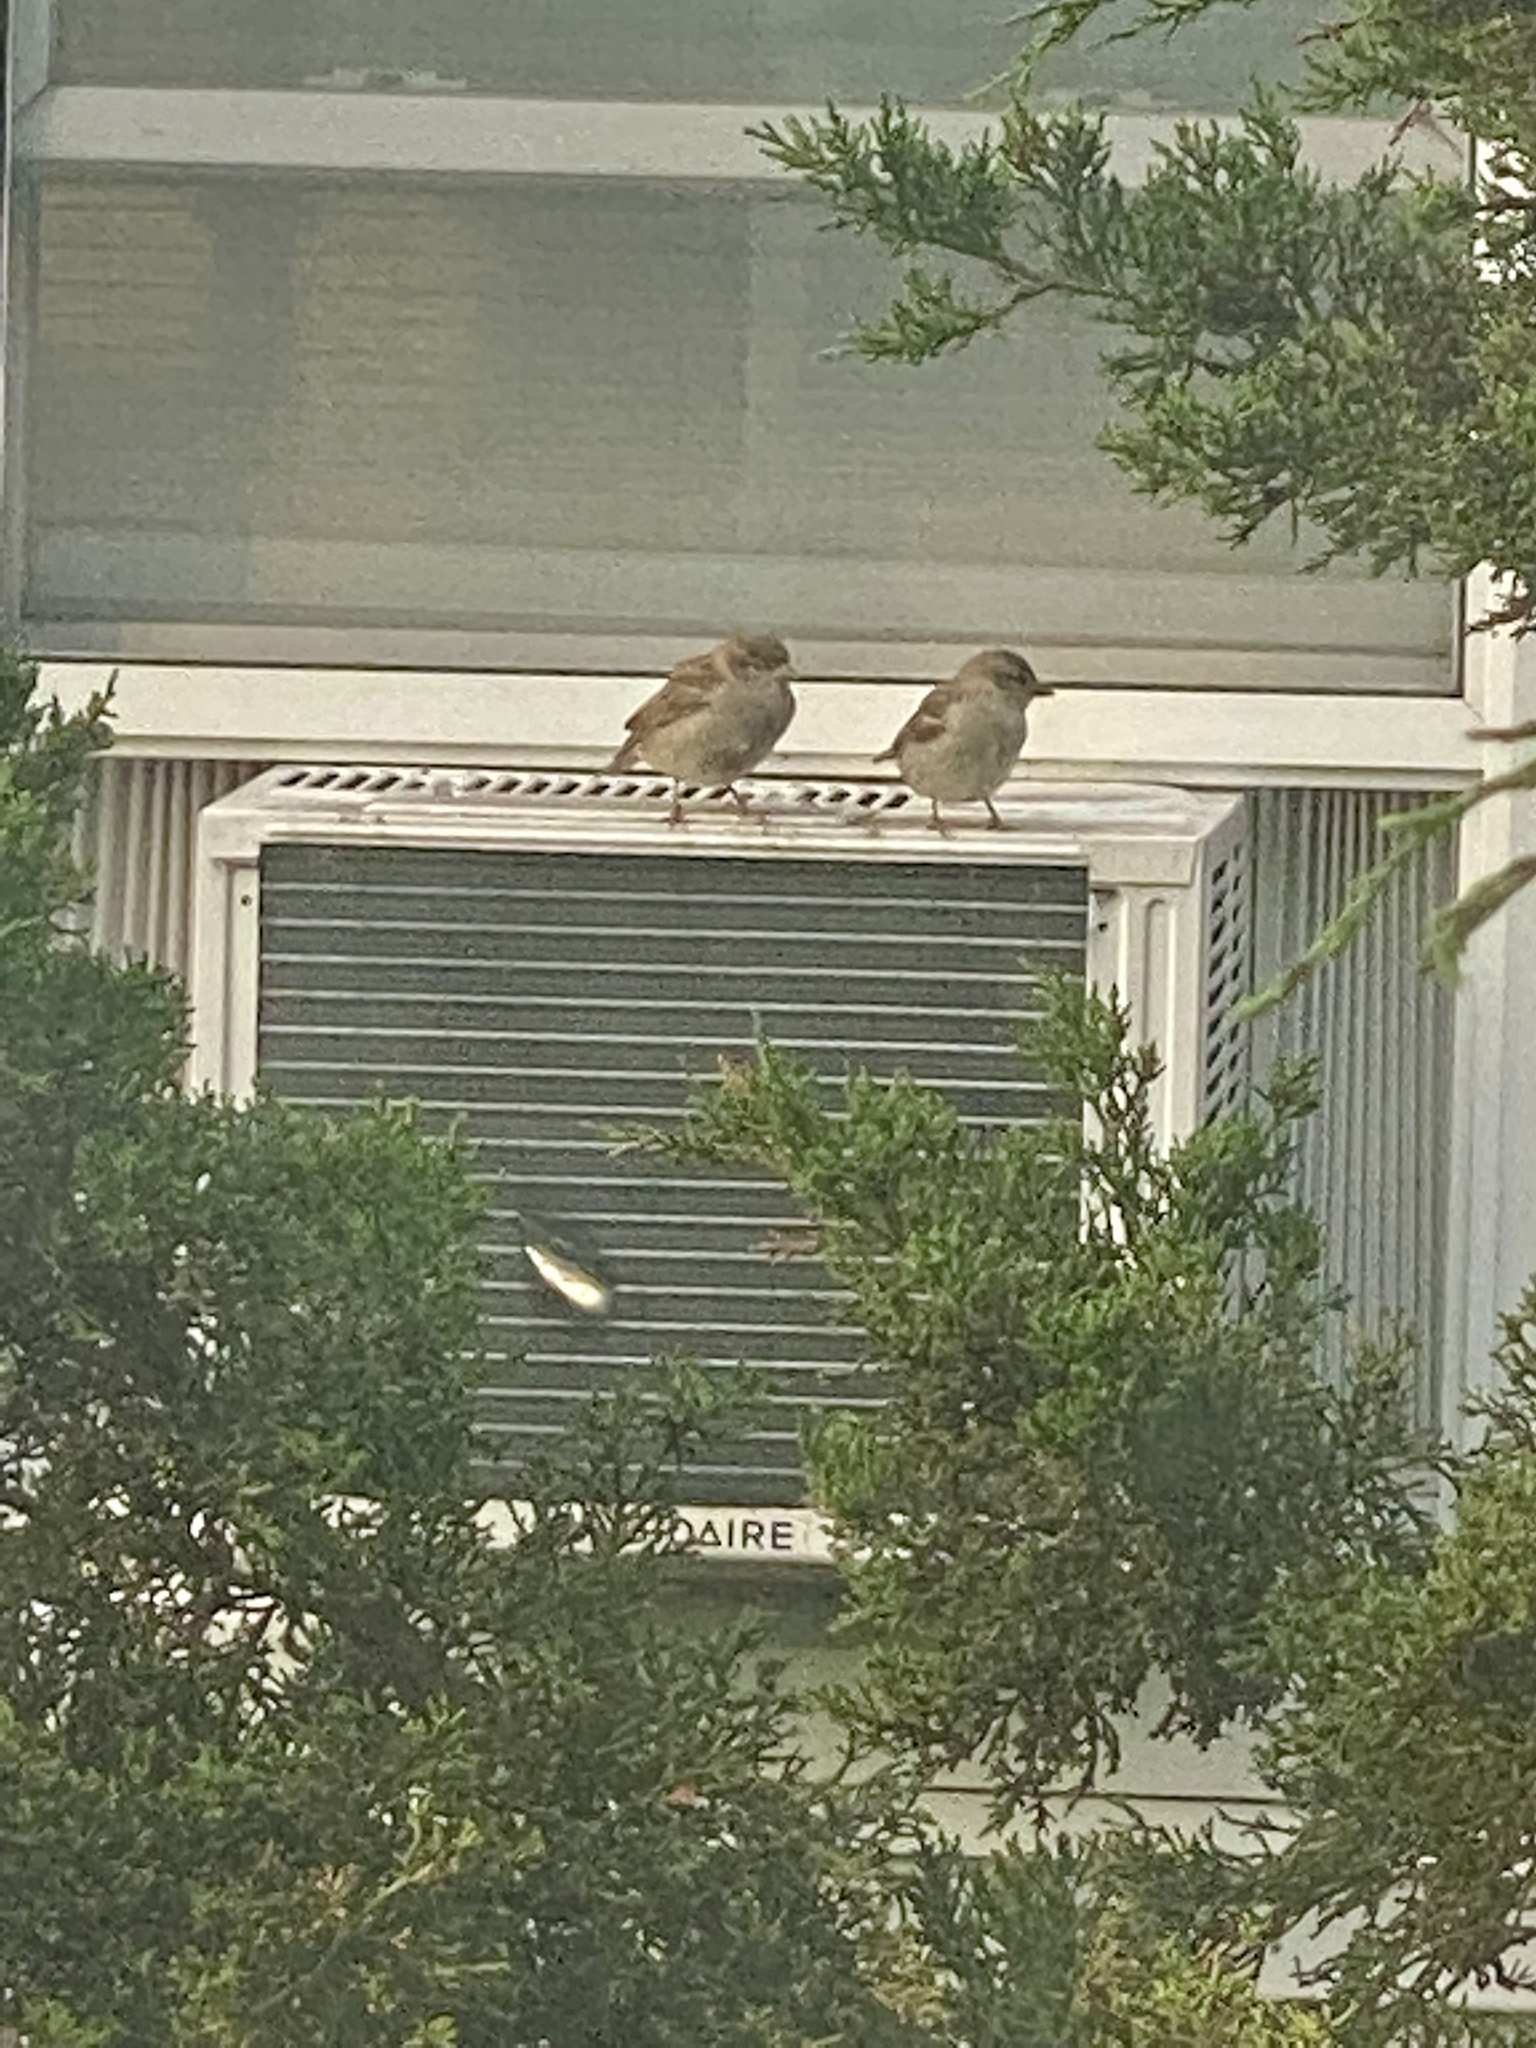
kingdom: Animalia
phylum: Chordata
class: Aves
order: Passeriformes
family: Passeridae
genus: Passer
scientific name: Passer domesticus
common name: House sparrow
